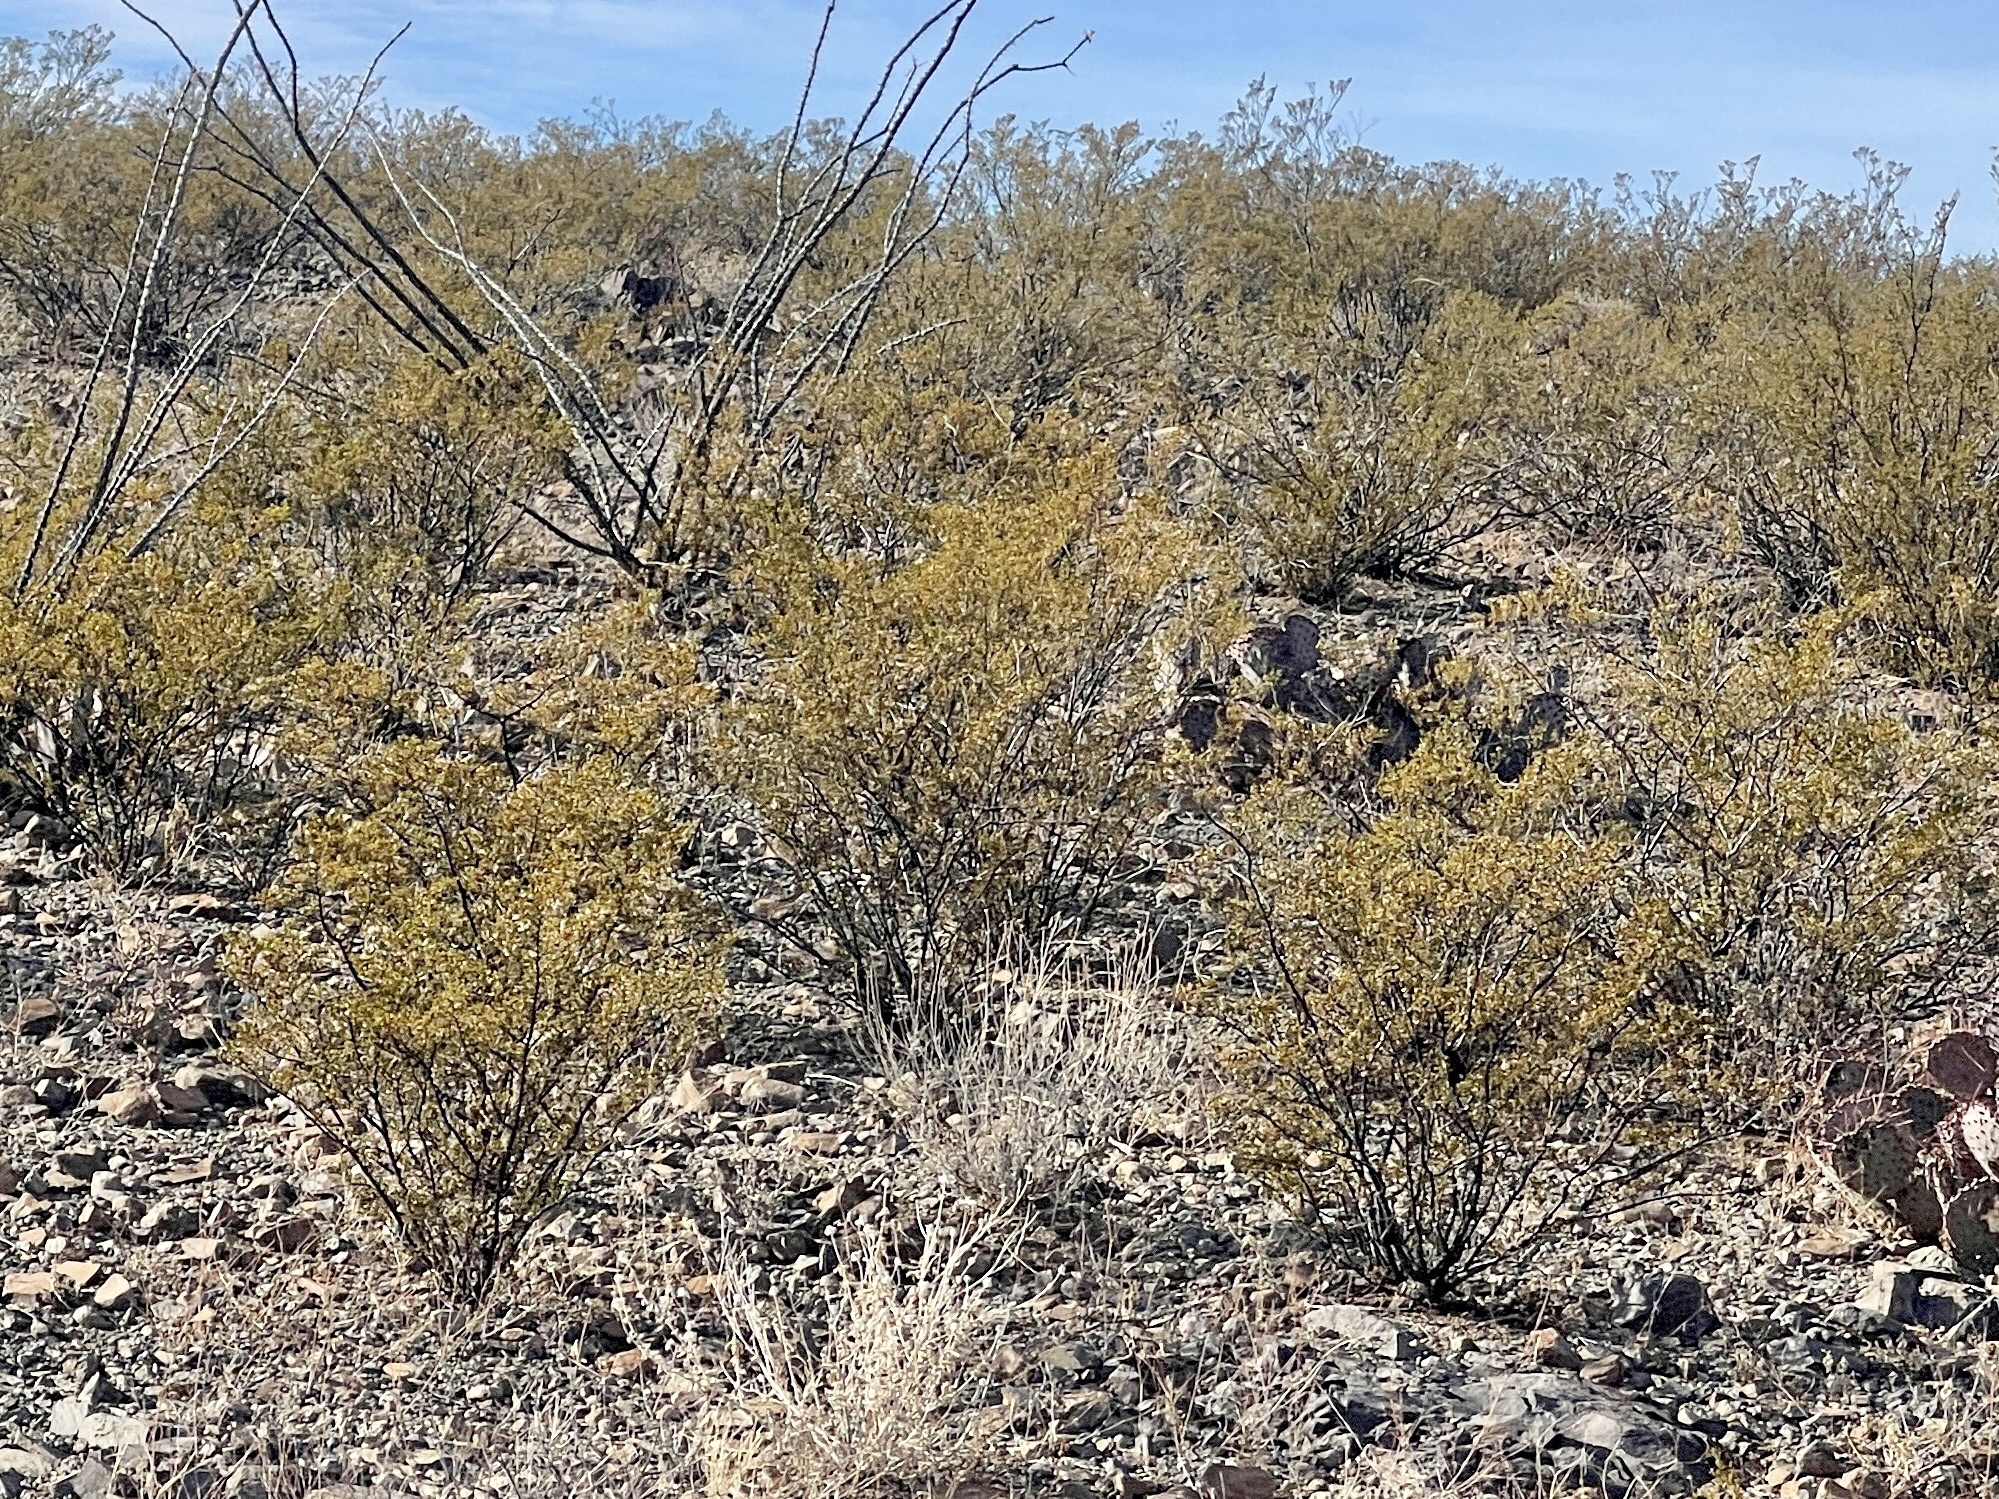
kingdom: Plantae
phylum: Tracheophyta
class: Magnoliopsida
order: Zygophyllales
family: Zygophyllaceae
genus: Larrea
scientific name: Larrea tridentata
